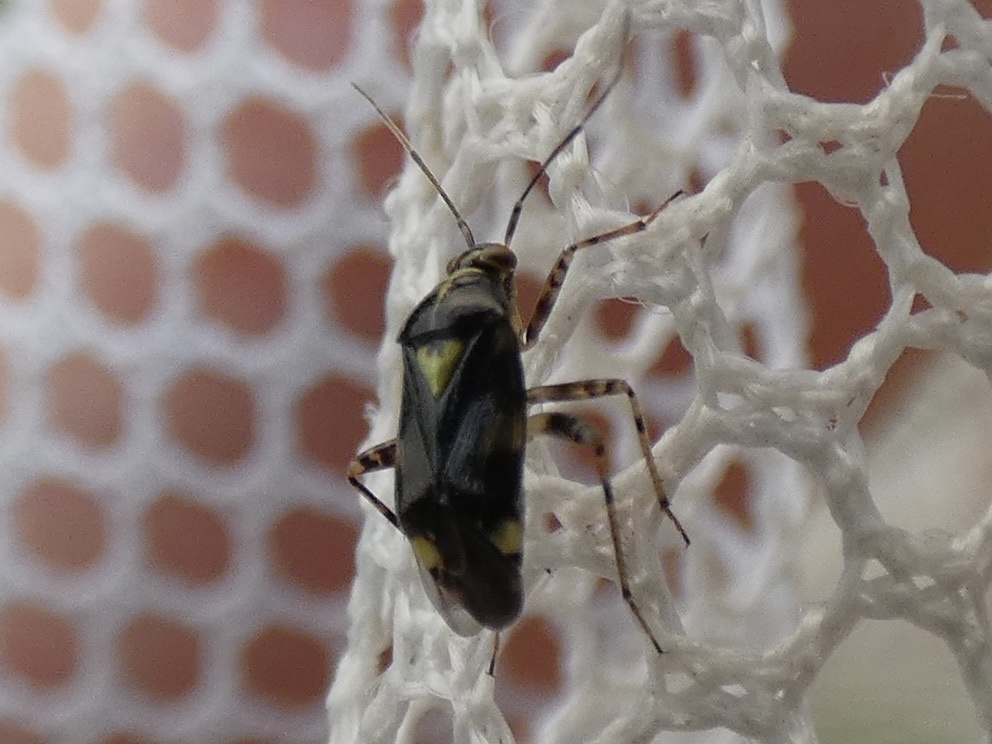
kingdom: Animalia
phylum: Arthropoda
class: Insecta
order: Hemiptera
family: Miridae
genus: Liocoris
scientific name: Liocoris tripustulatus
